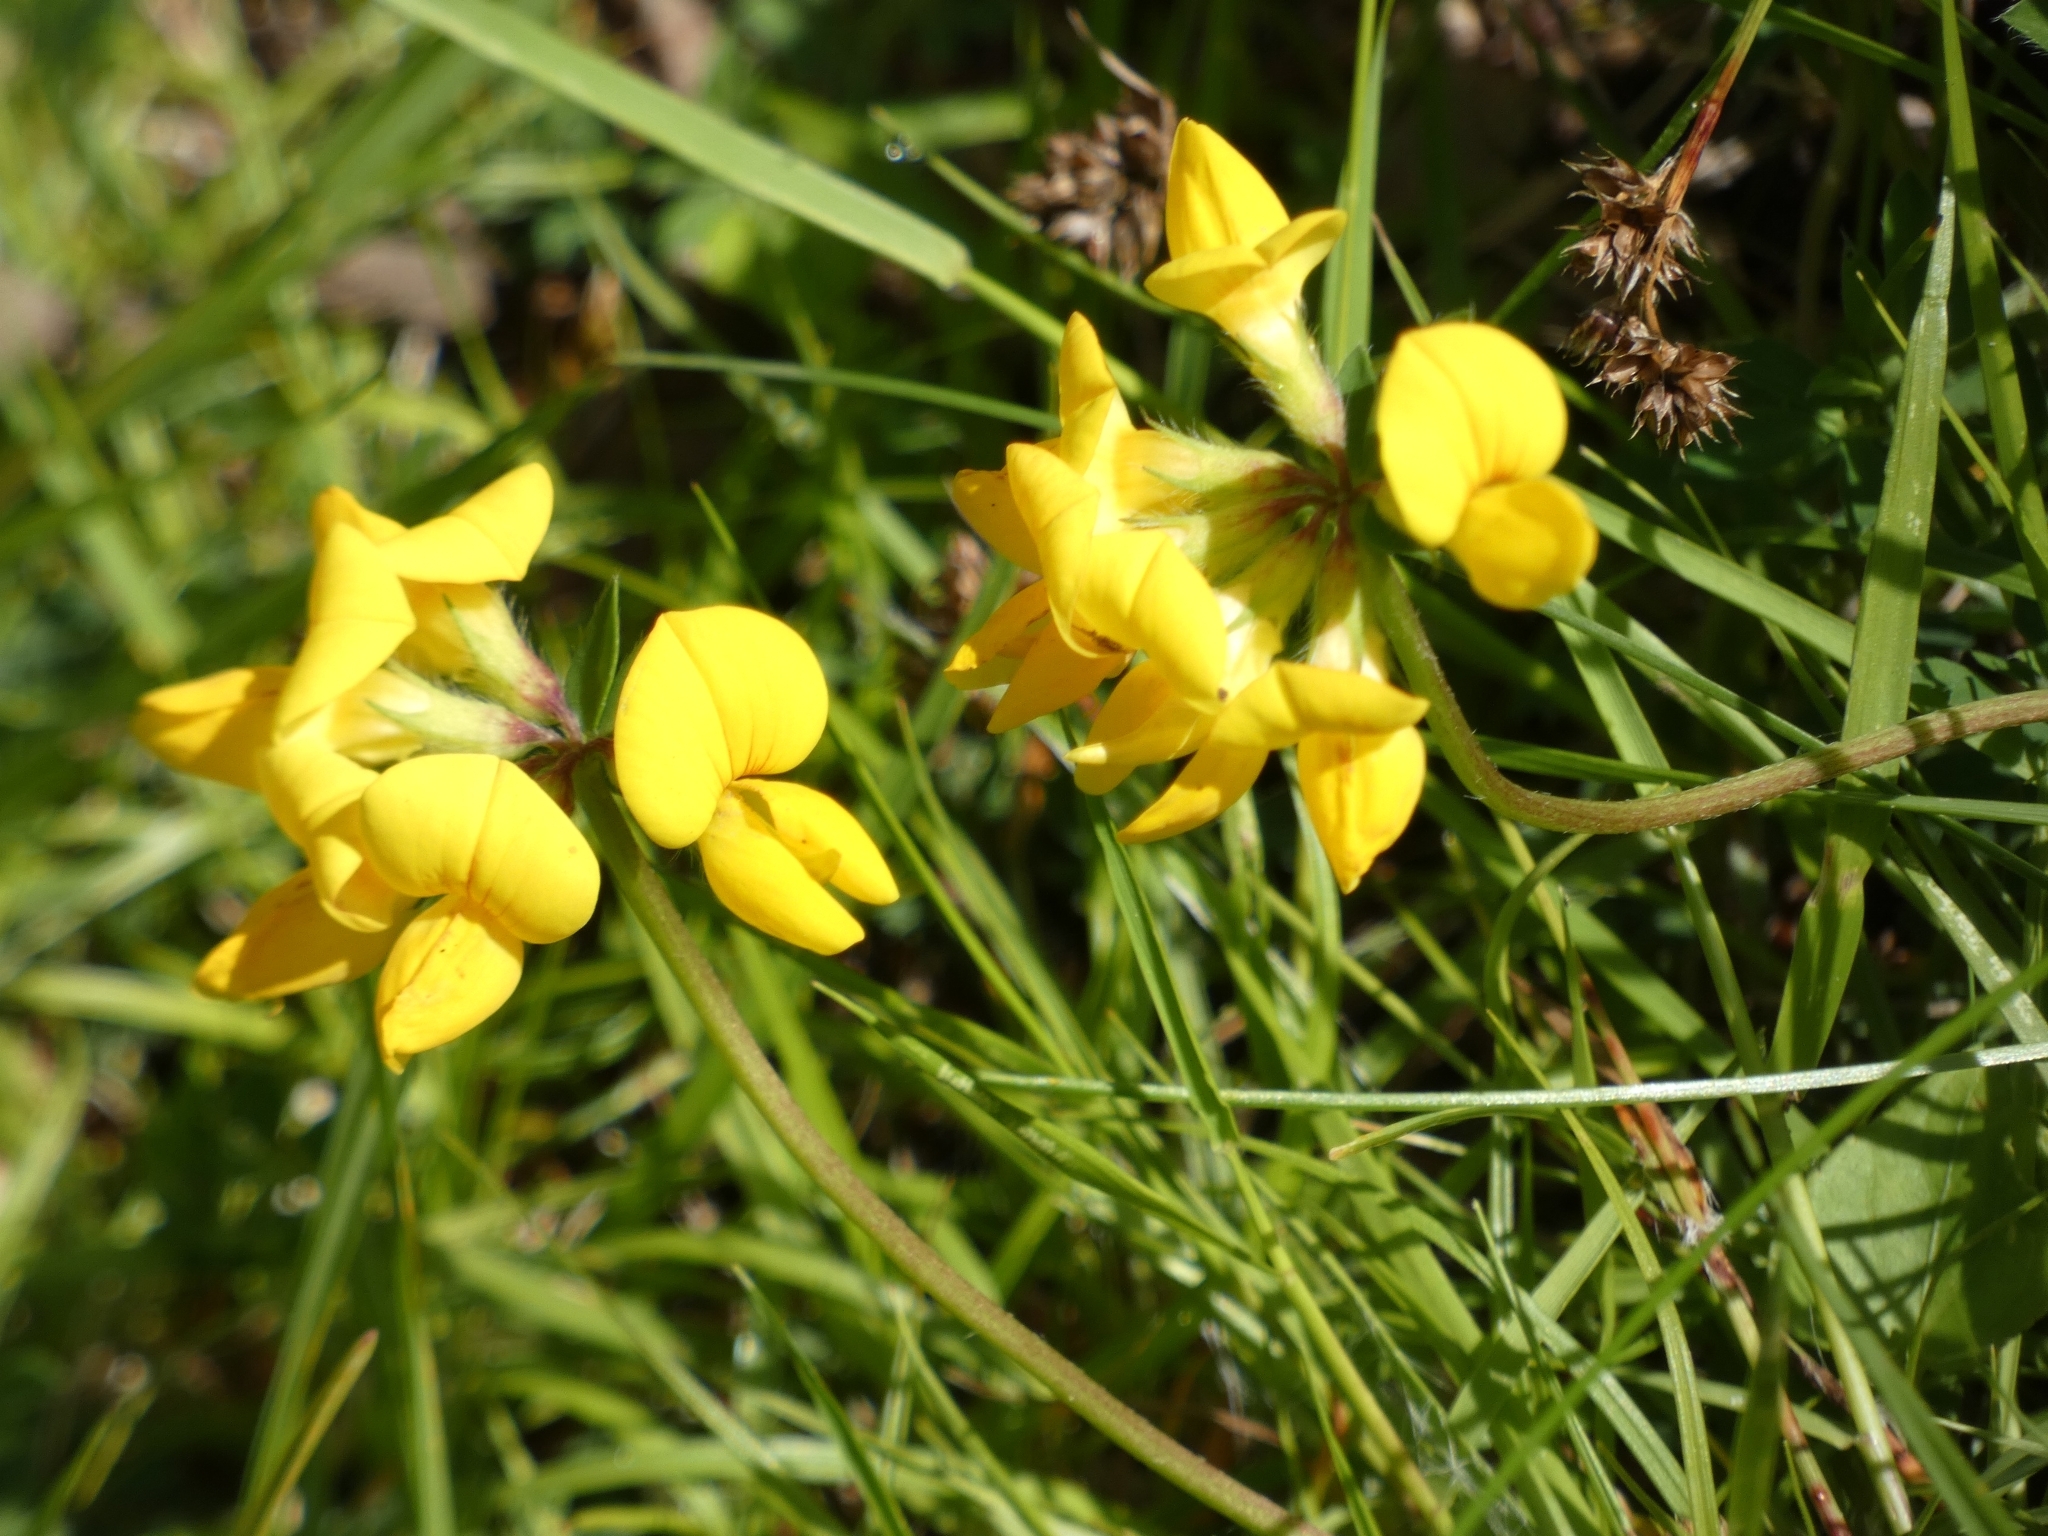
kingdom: Plantae
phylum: Tracheophyta
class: Magnoliopsida
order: Fabales
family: Fabaceae
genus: Lotus
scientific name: Lotus corniculatus
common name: Common bird's-foot-trefoil
